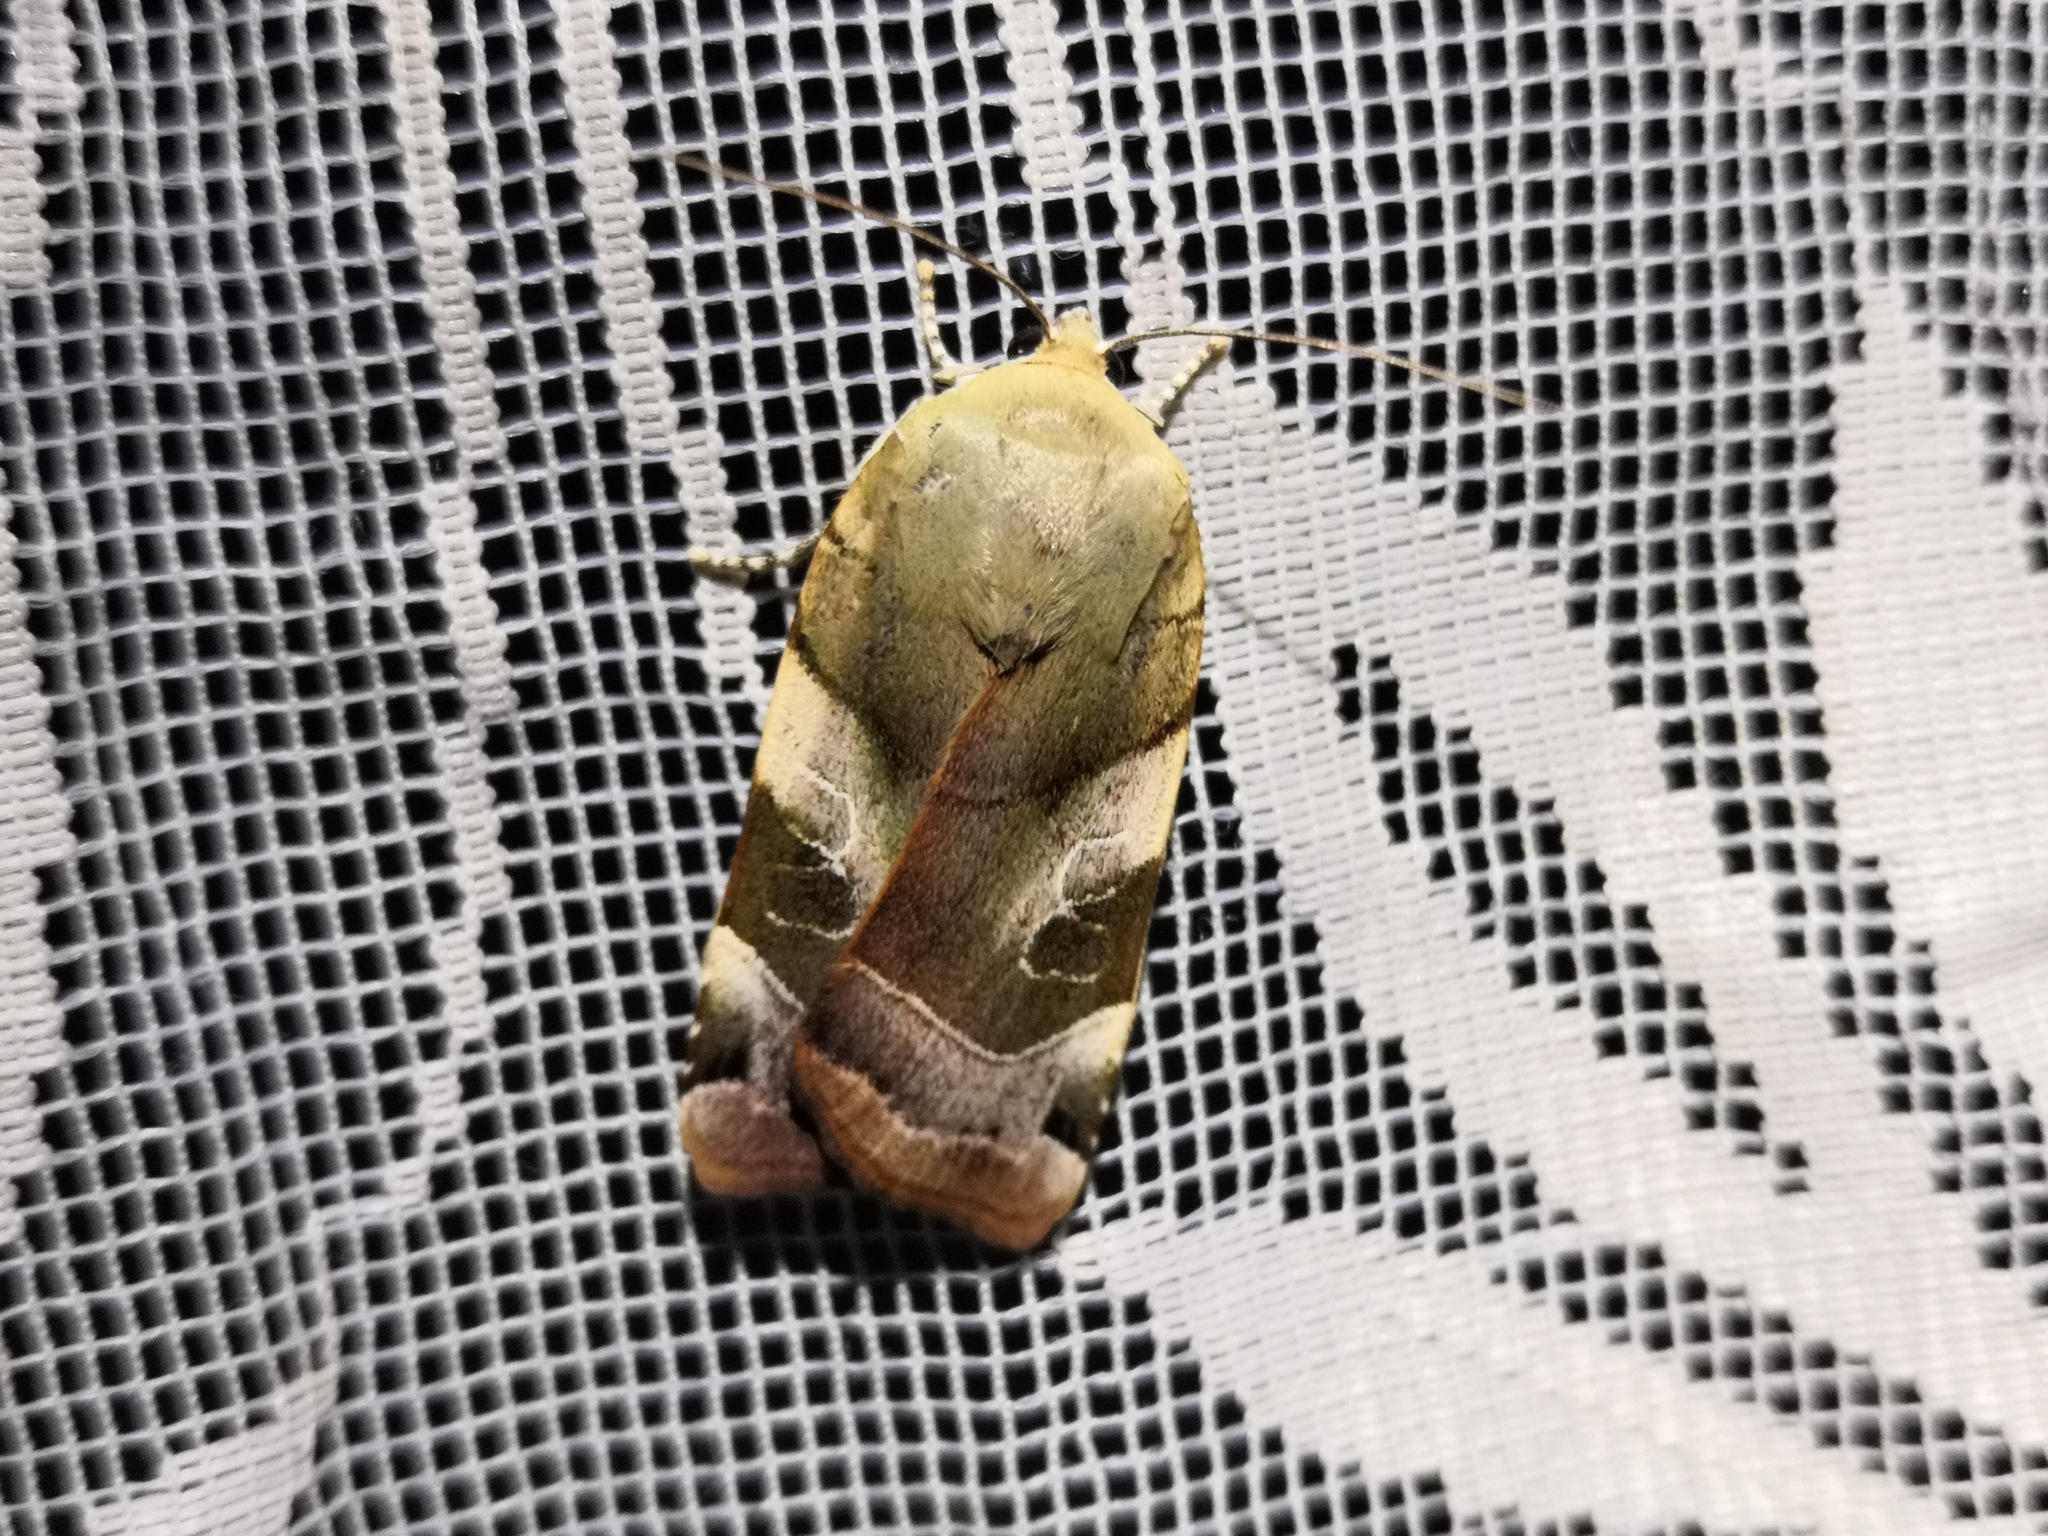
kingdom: Animalia
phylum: Arthropoda
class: Insecta
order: Lepidoptera
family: Noctuidae
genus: Noctua
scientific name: Noctua fimbriata
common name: Broad-bordered yellow underwing
